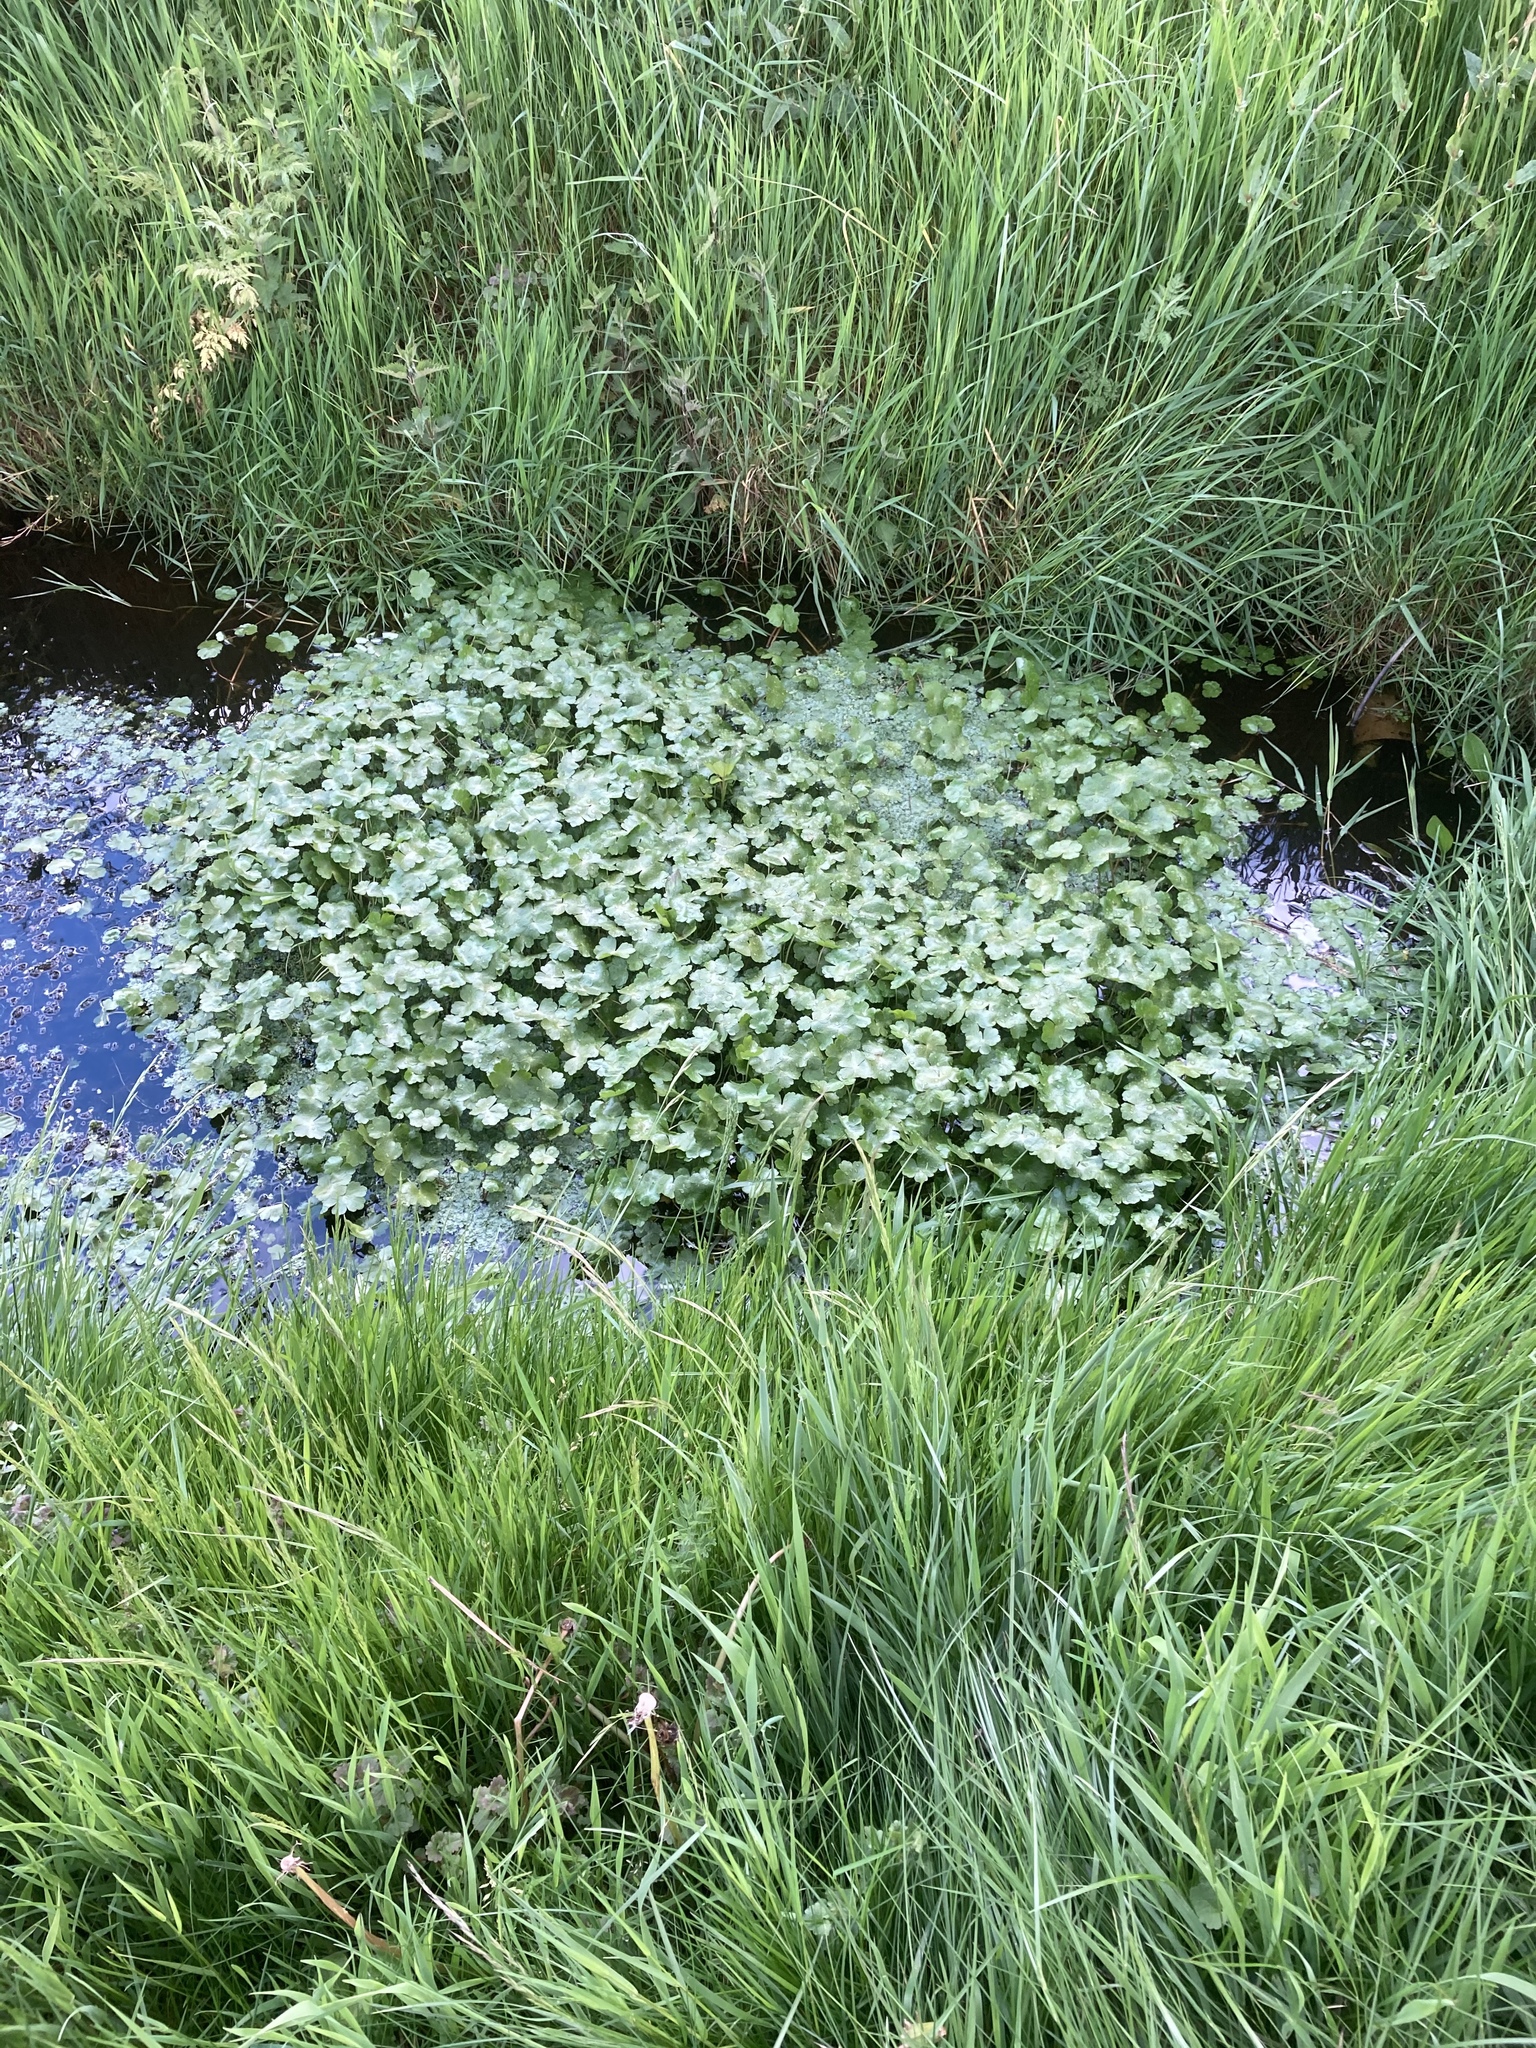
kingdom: Plantae
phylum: Tracheophyta
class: Magnoliopsida
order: Apiales
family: Araliaceae
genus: Hydrocotyle
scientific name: Hydrocotyle ranunculoides
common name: Floating pennywort
